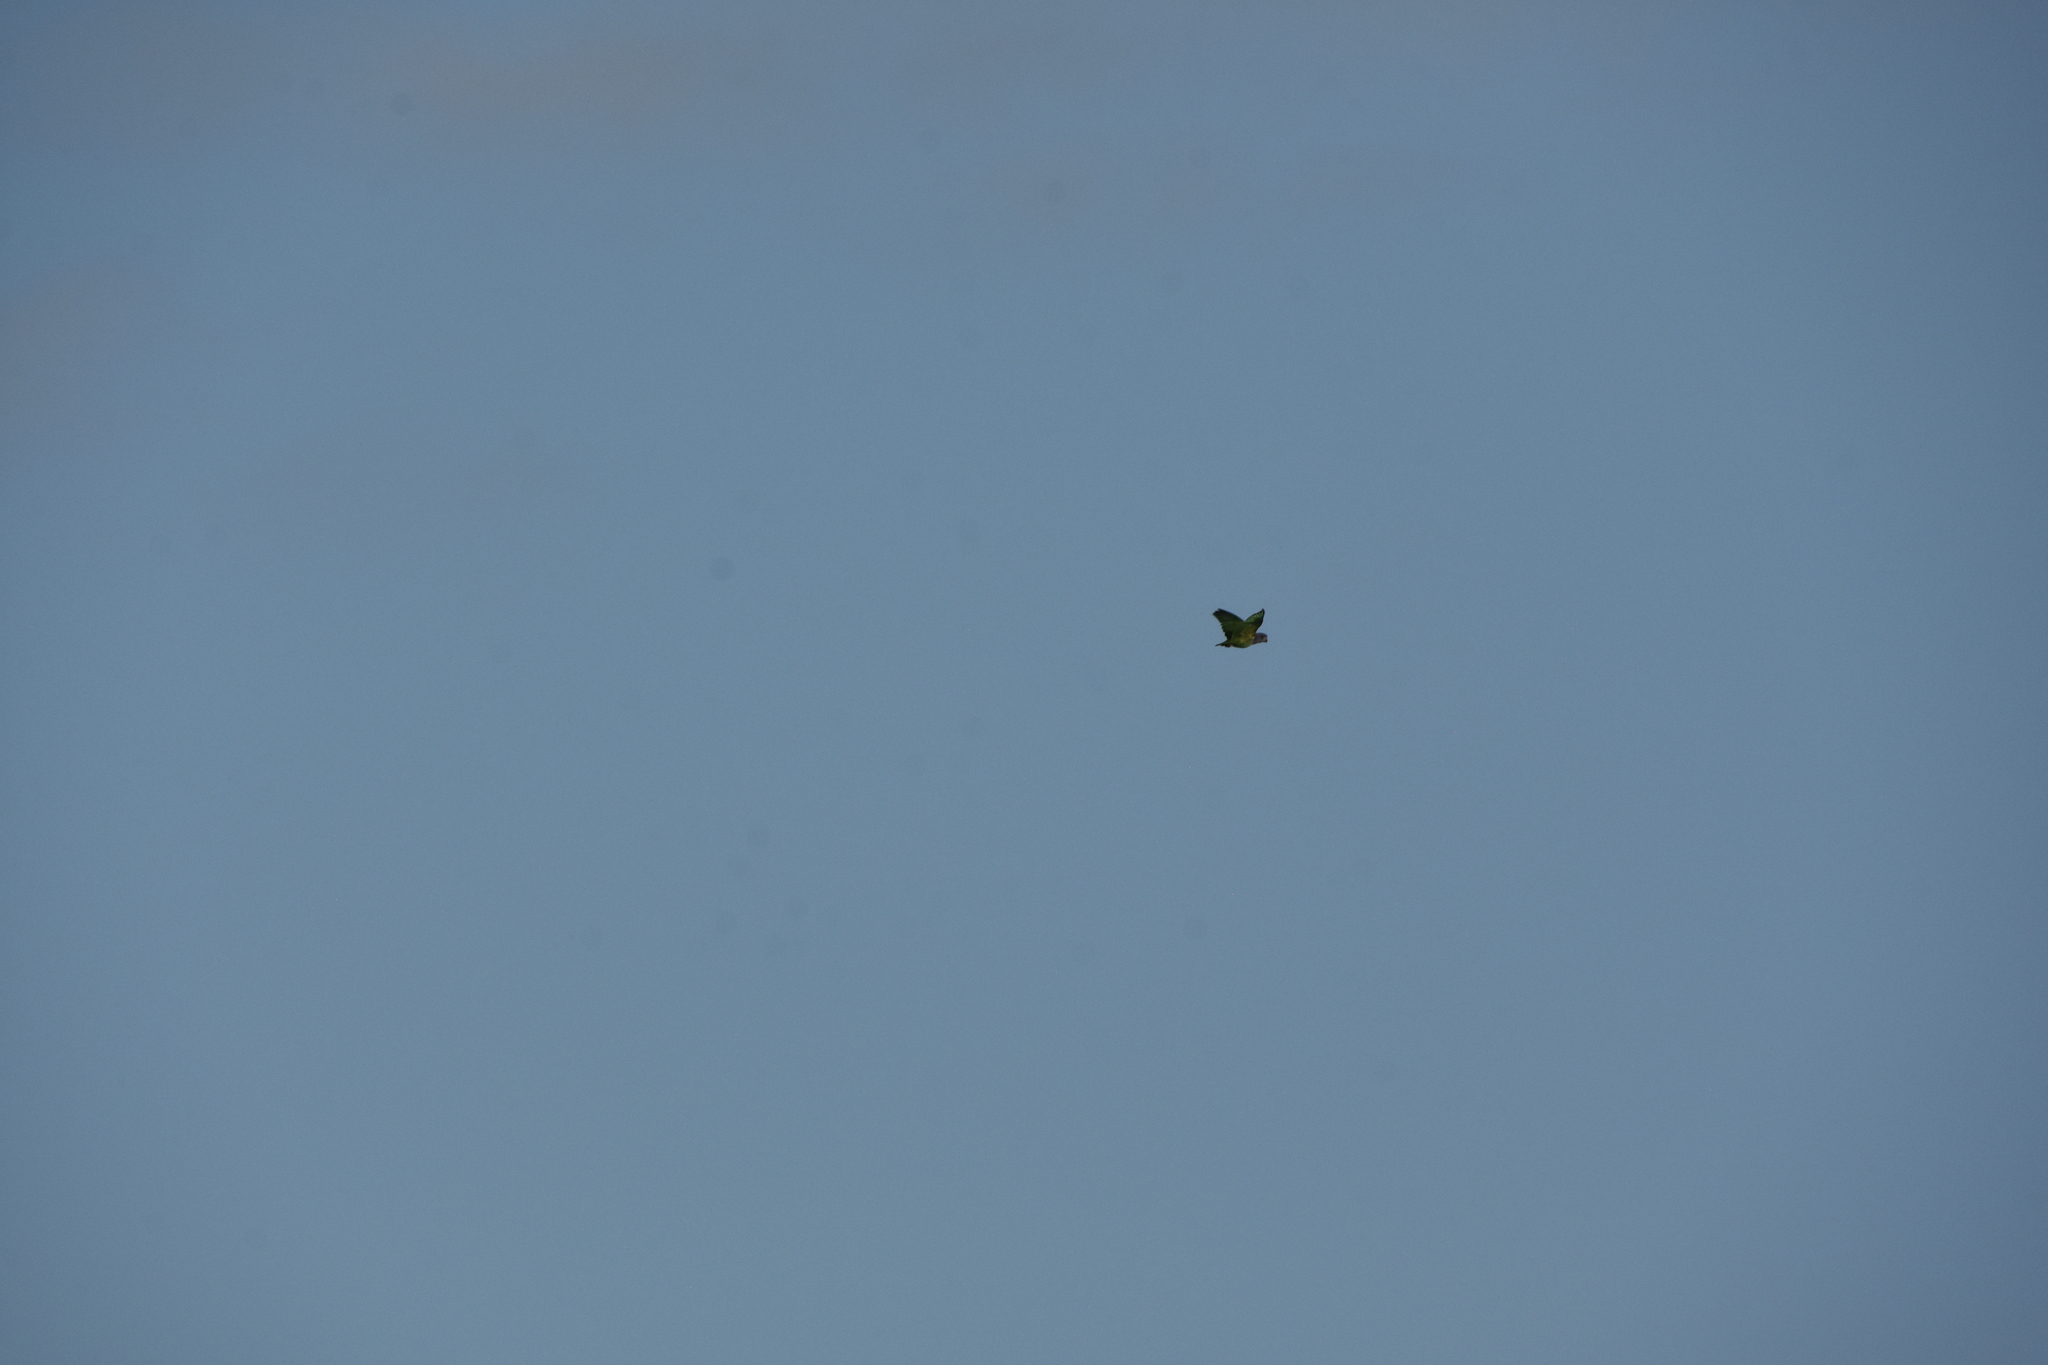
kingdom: Animalia
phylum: Chordata
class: Aves
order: Psittaciformes
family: Psittacidae
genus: Pionus
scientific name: Pionus menstruus
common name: Blue-headed parrot
